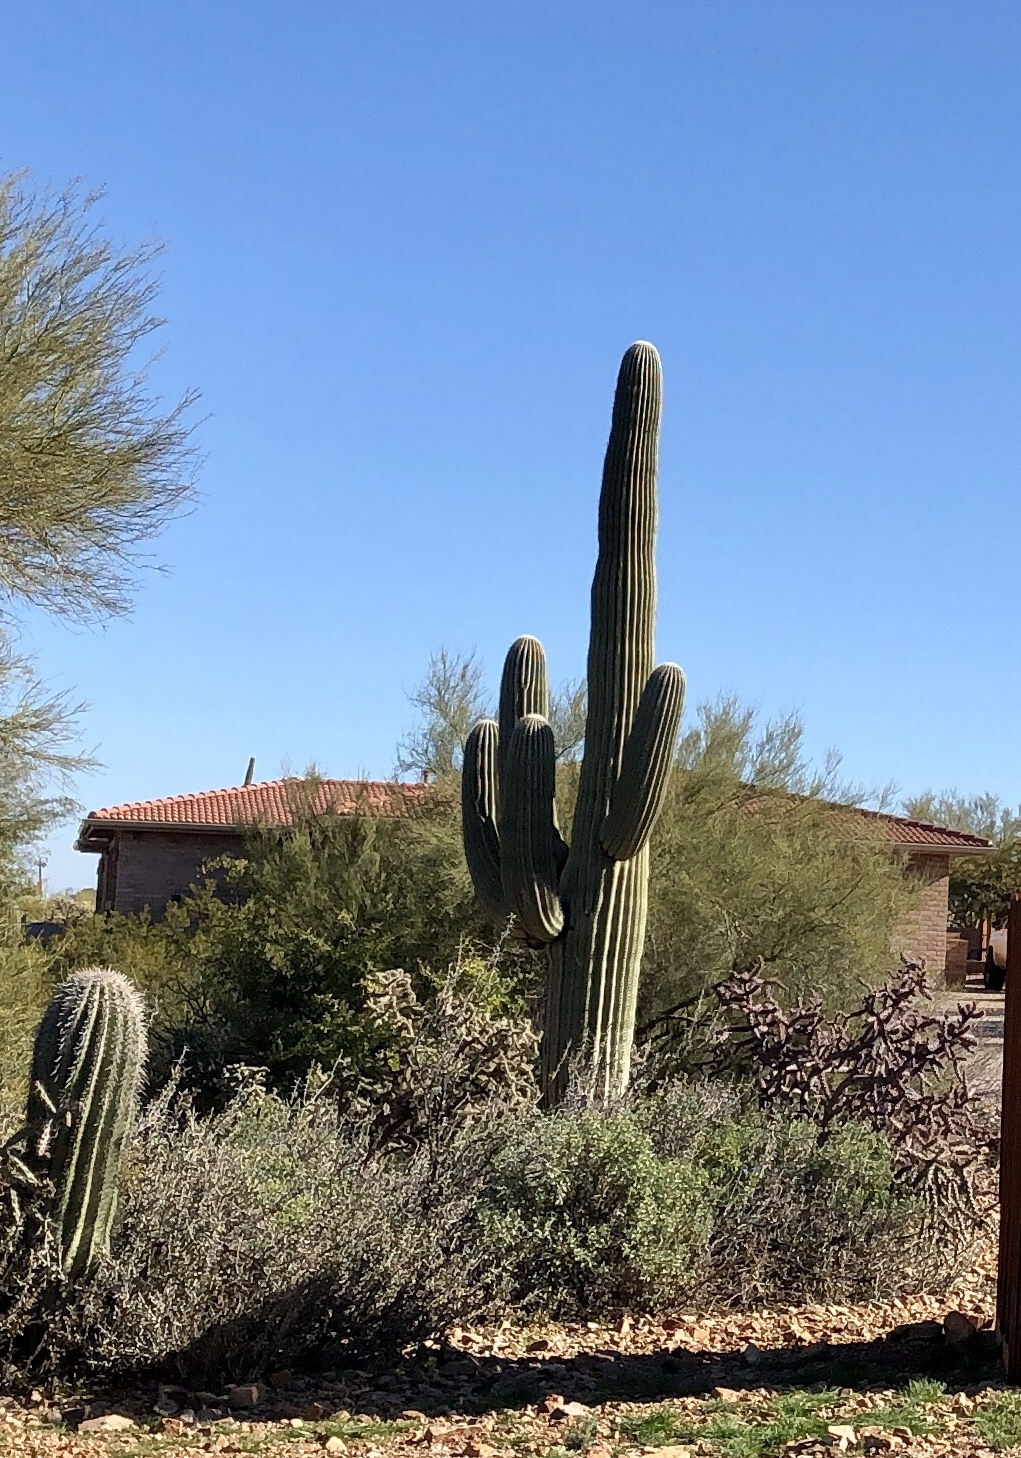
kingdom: Plantae
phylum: Tracheophyta
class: Magnoliopsida
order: Caryophyllales
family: Cactaceae
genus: Carnegiea
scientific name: Carnegiea gigantea
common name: Saguaro
